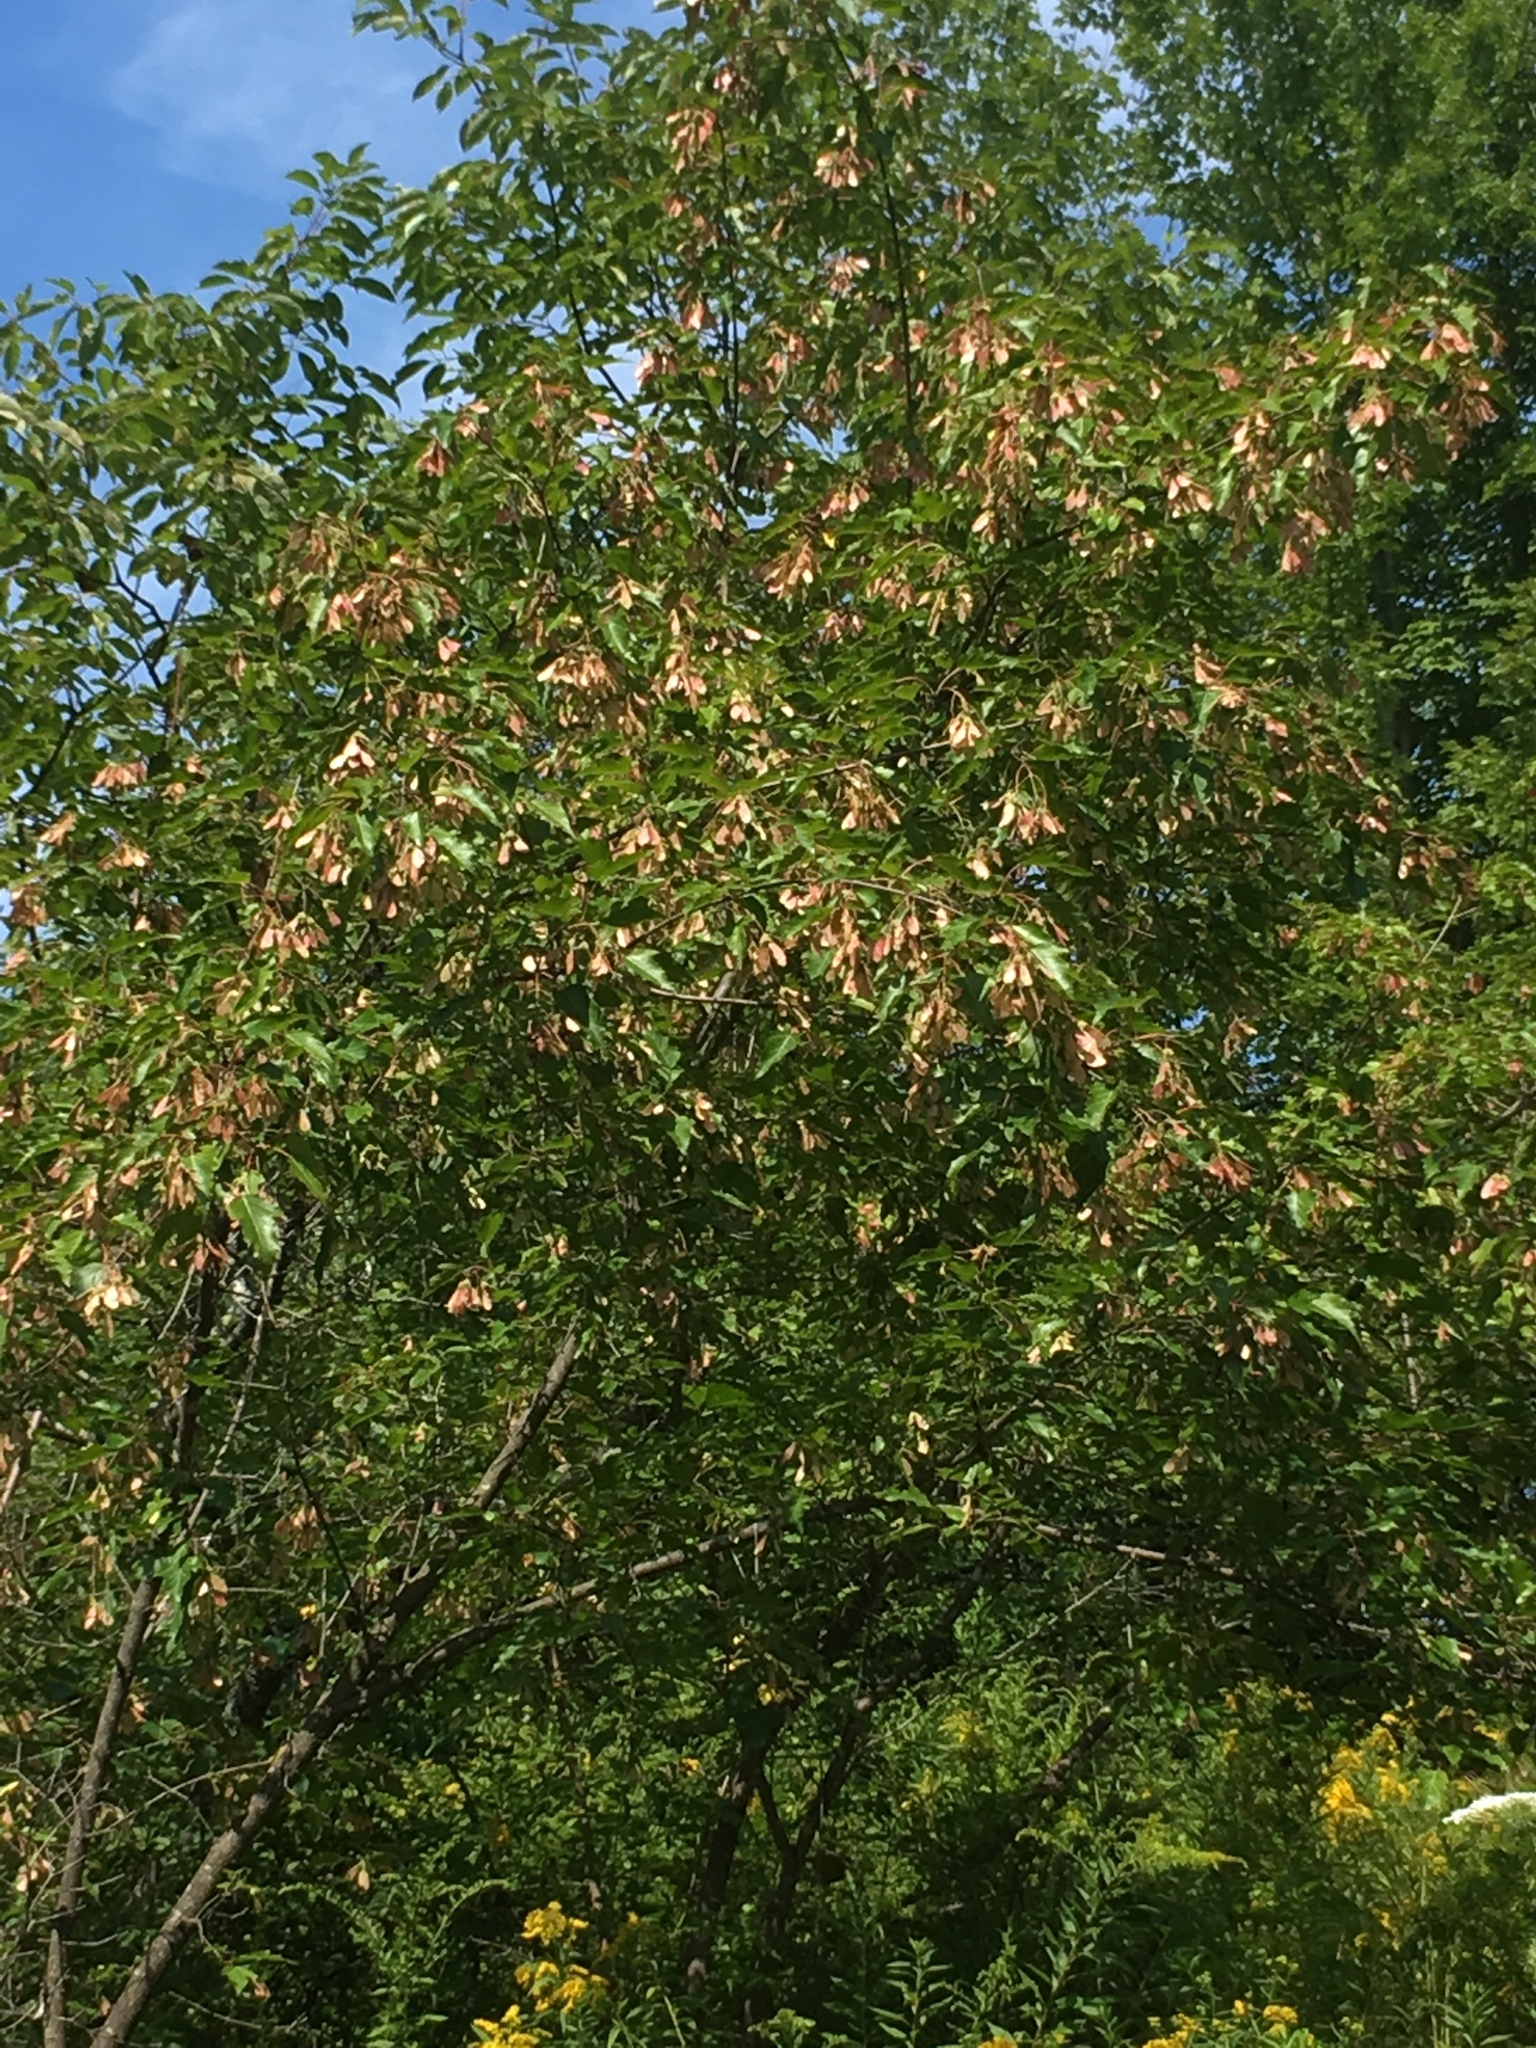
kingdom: Plantae
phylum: Tracheophyta
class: Magnoliopsida
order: Sapindales
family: Sapindaceae
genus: Acer
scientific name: Acer tataricum
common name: Tartar maple
